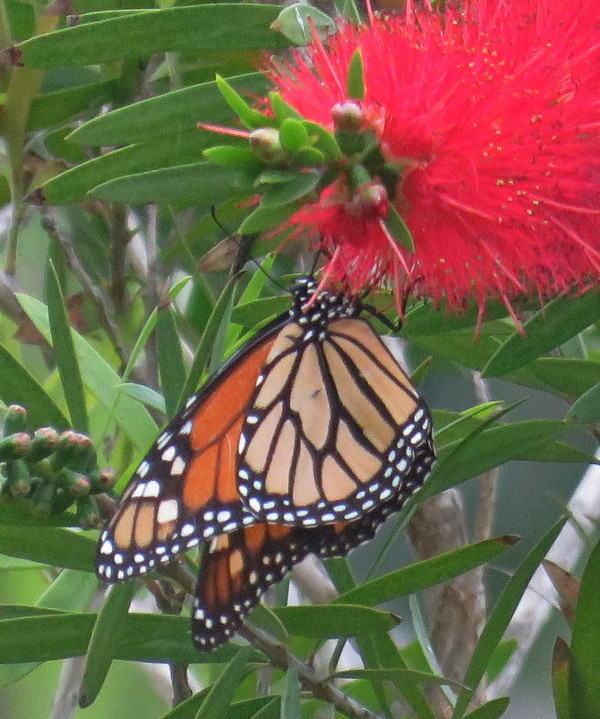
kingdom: Animalia
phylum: Arthropoda
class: Insecta
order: Lepidoptera
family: Nymphalidae
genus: Danaus
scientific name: Danaus plexippus
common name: Monarch
